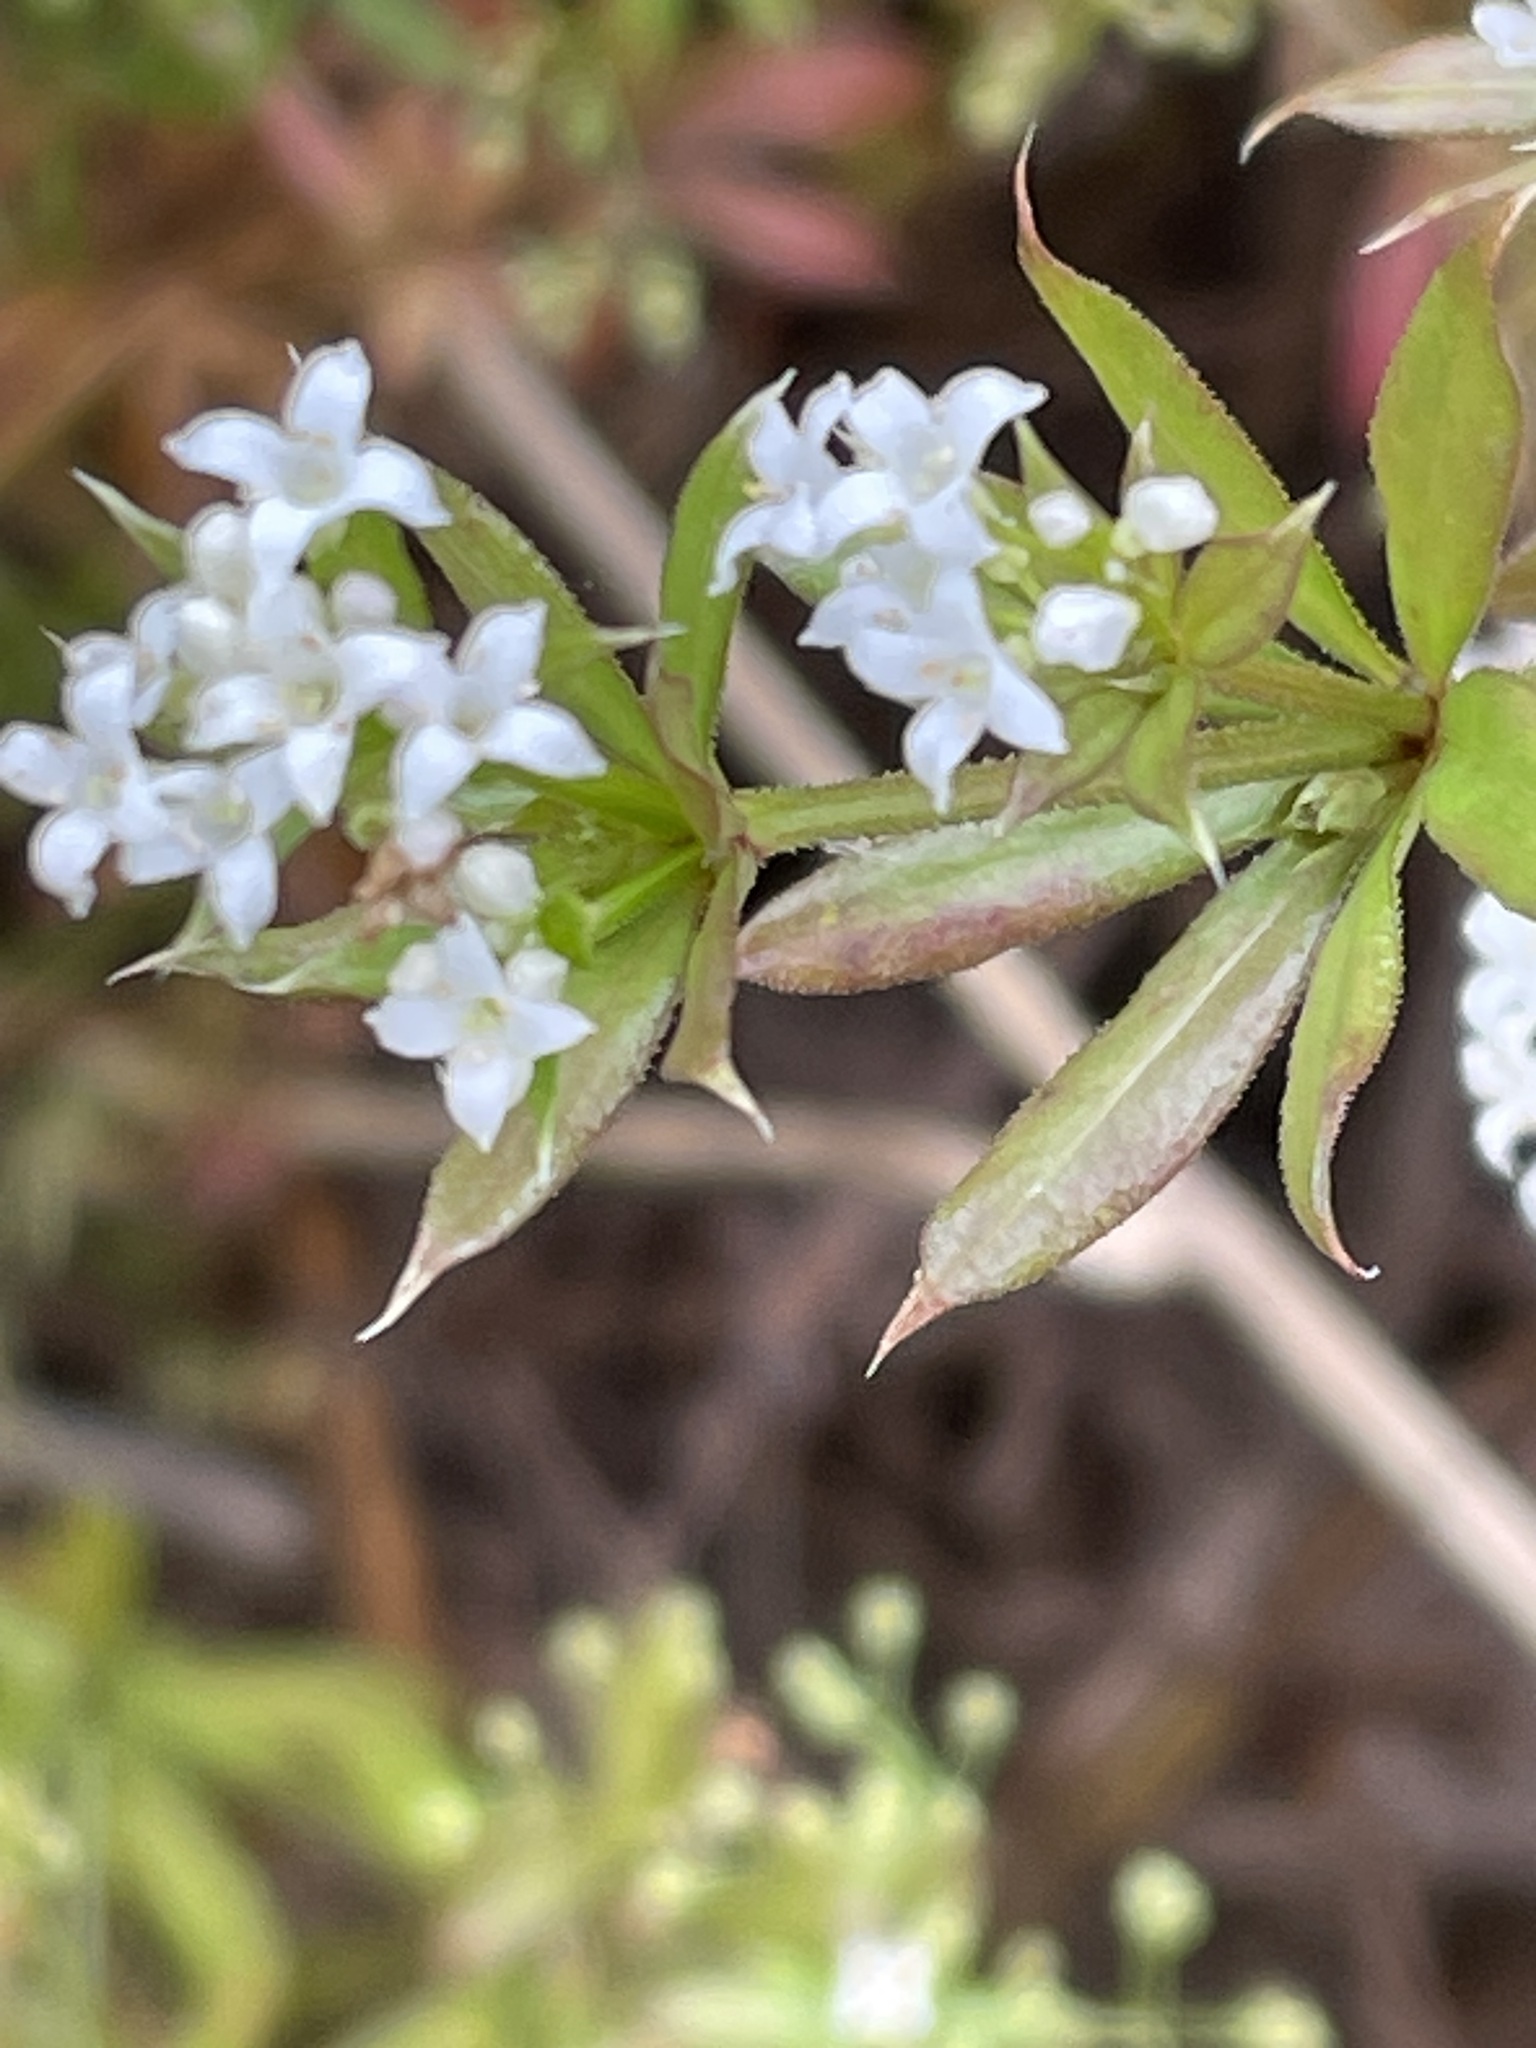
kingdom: Plantae
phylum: Tracheophyta
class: Magnoliopsida
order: Gentianales
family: Rubiaceae
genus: Galium
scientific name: Galium rivale
